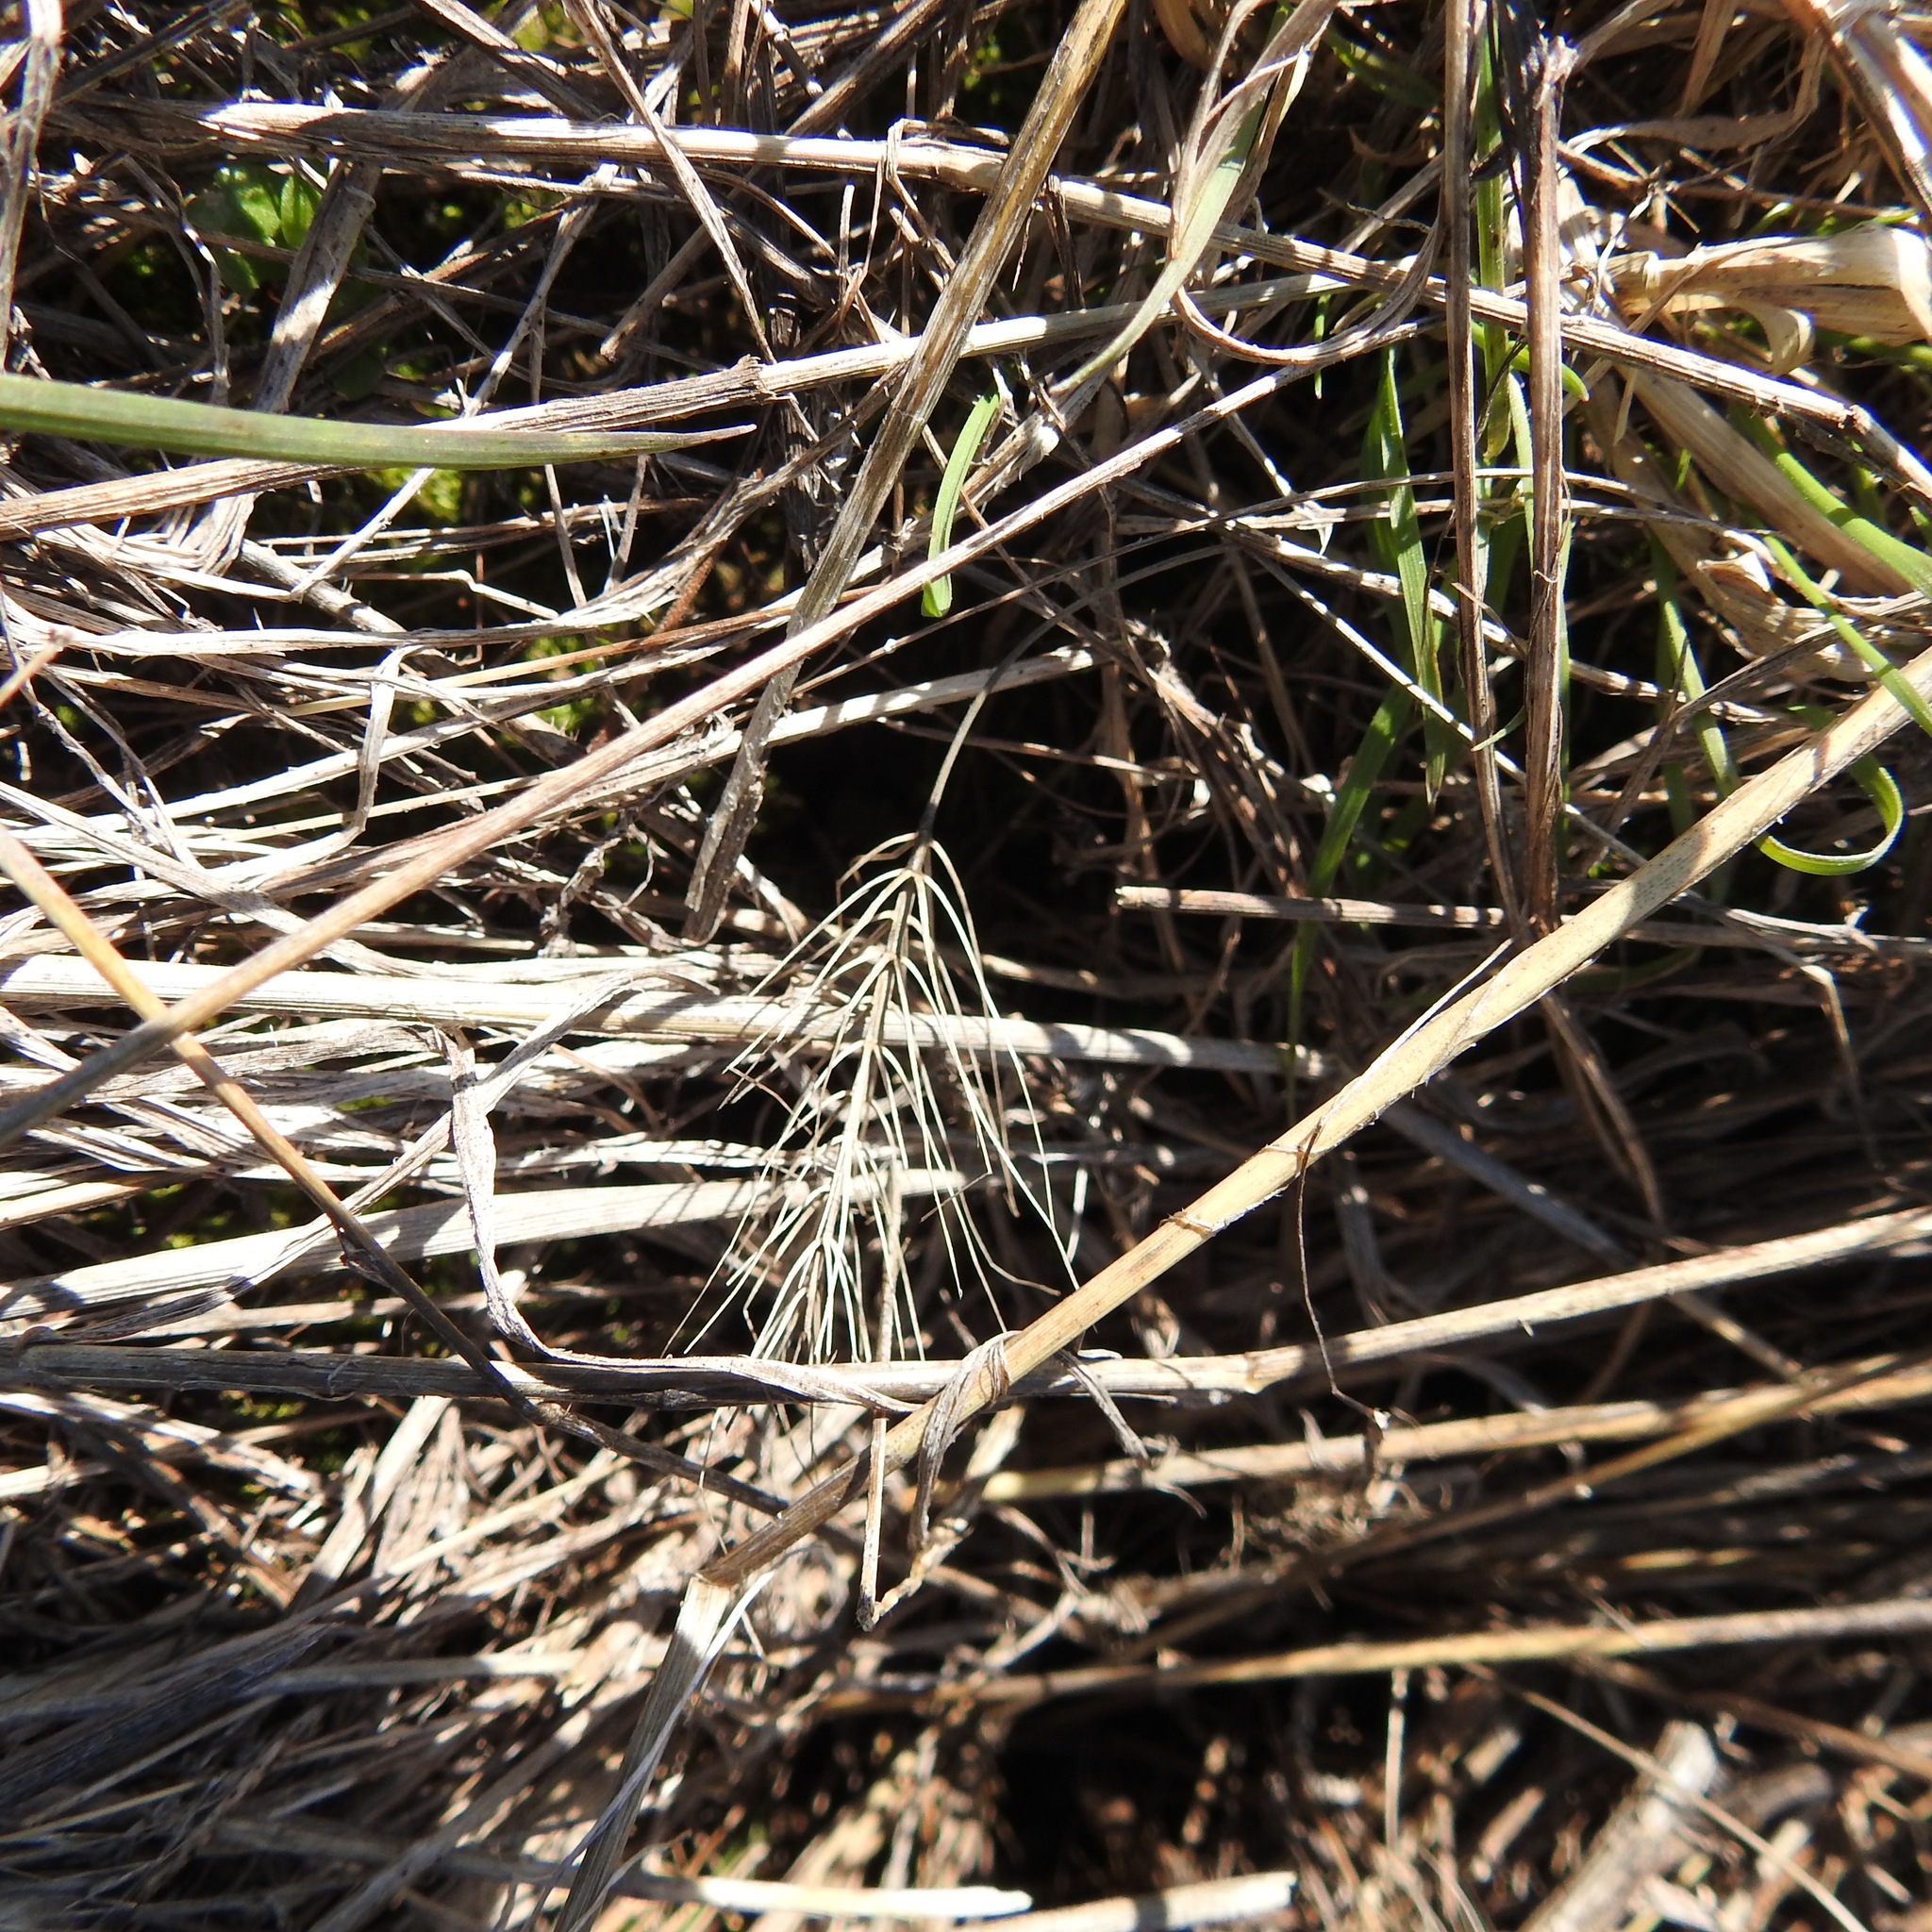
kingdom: Plantae
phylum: Tracheophyta
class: Liliopsida
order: Poales
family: Poaceae
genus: Taeniatherum
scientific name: Taeniatherum caput-medusae
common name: Medusahead
